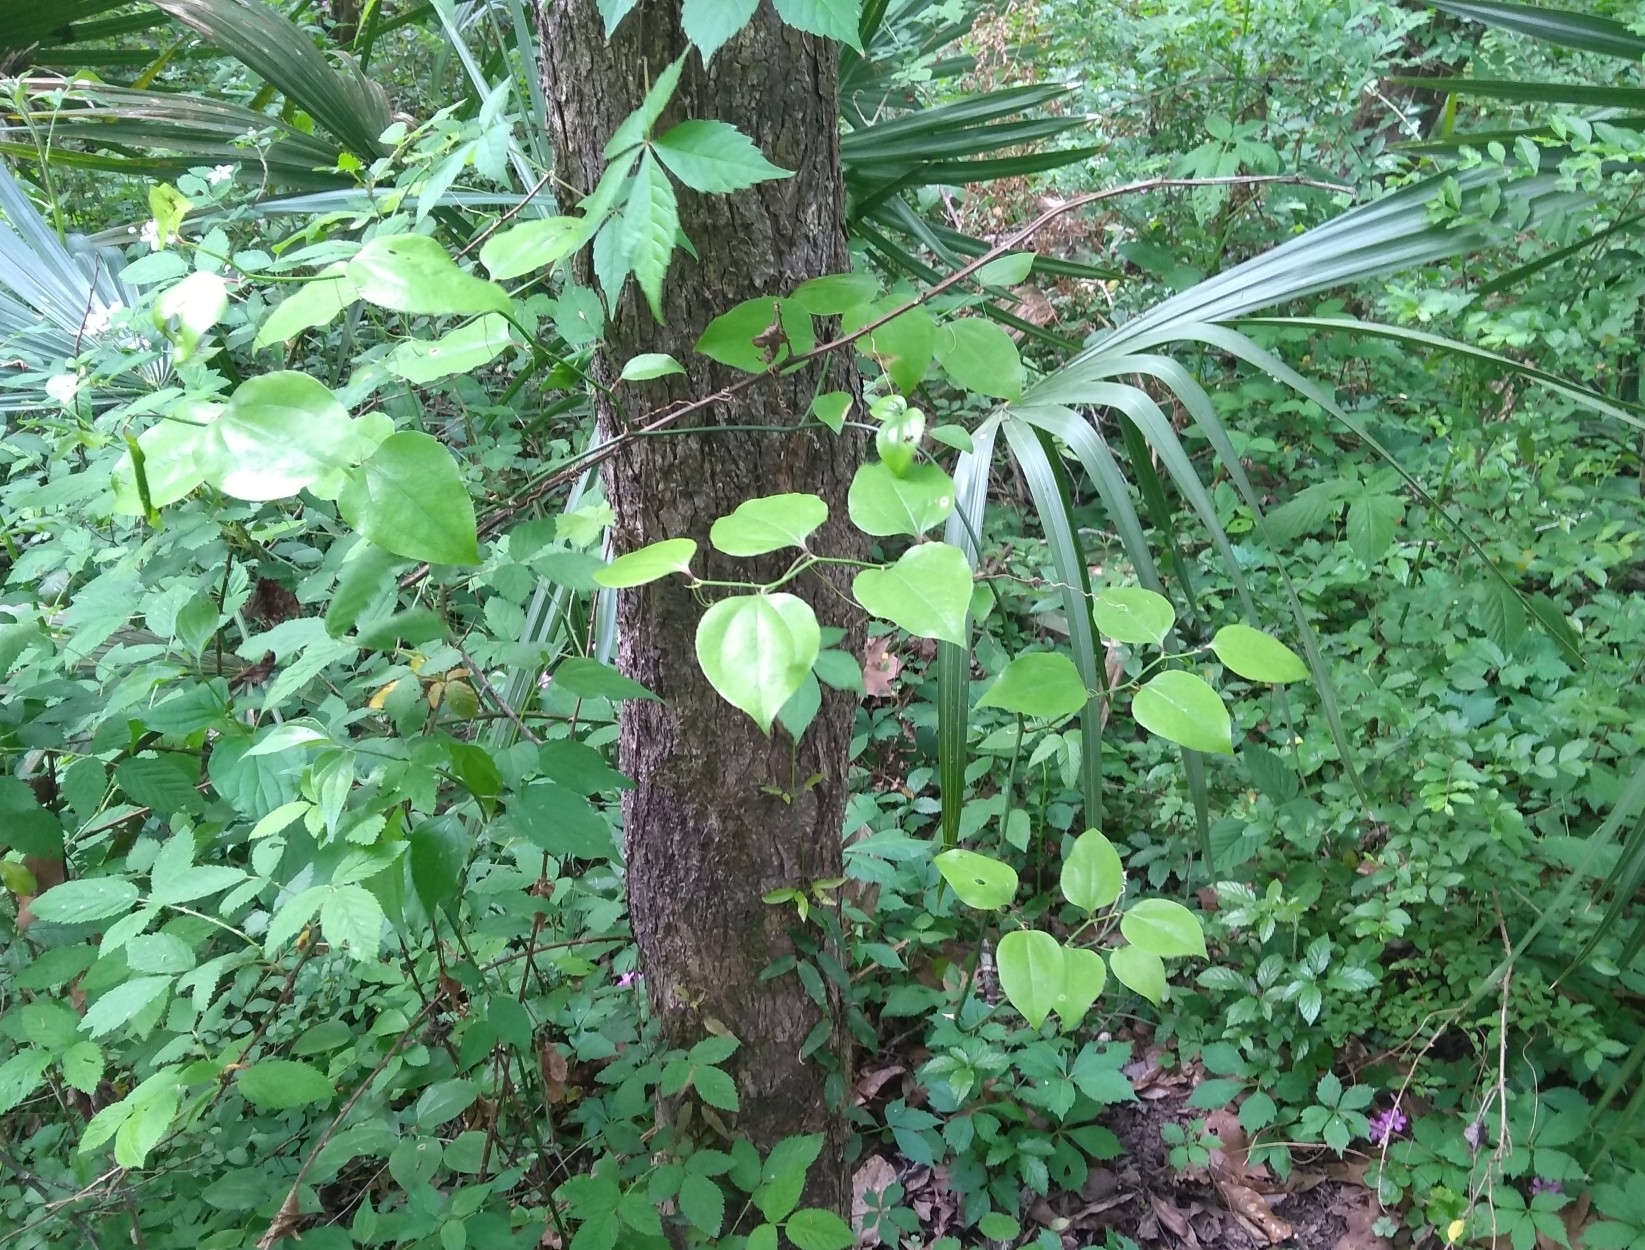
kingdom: Plantae
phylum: Tracheophyta
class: Liliopsida
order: Liliales
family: Smilacaceae
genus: Smilax
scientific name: Smilax rotundifolia
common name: Bullbriar
